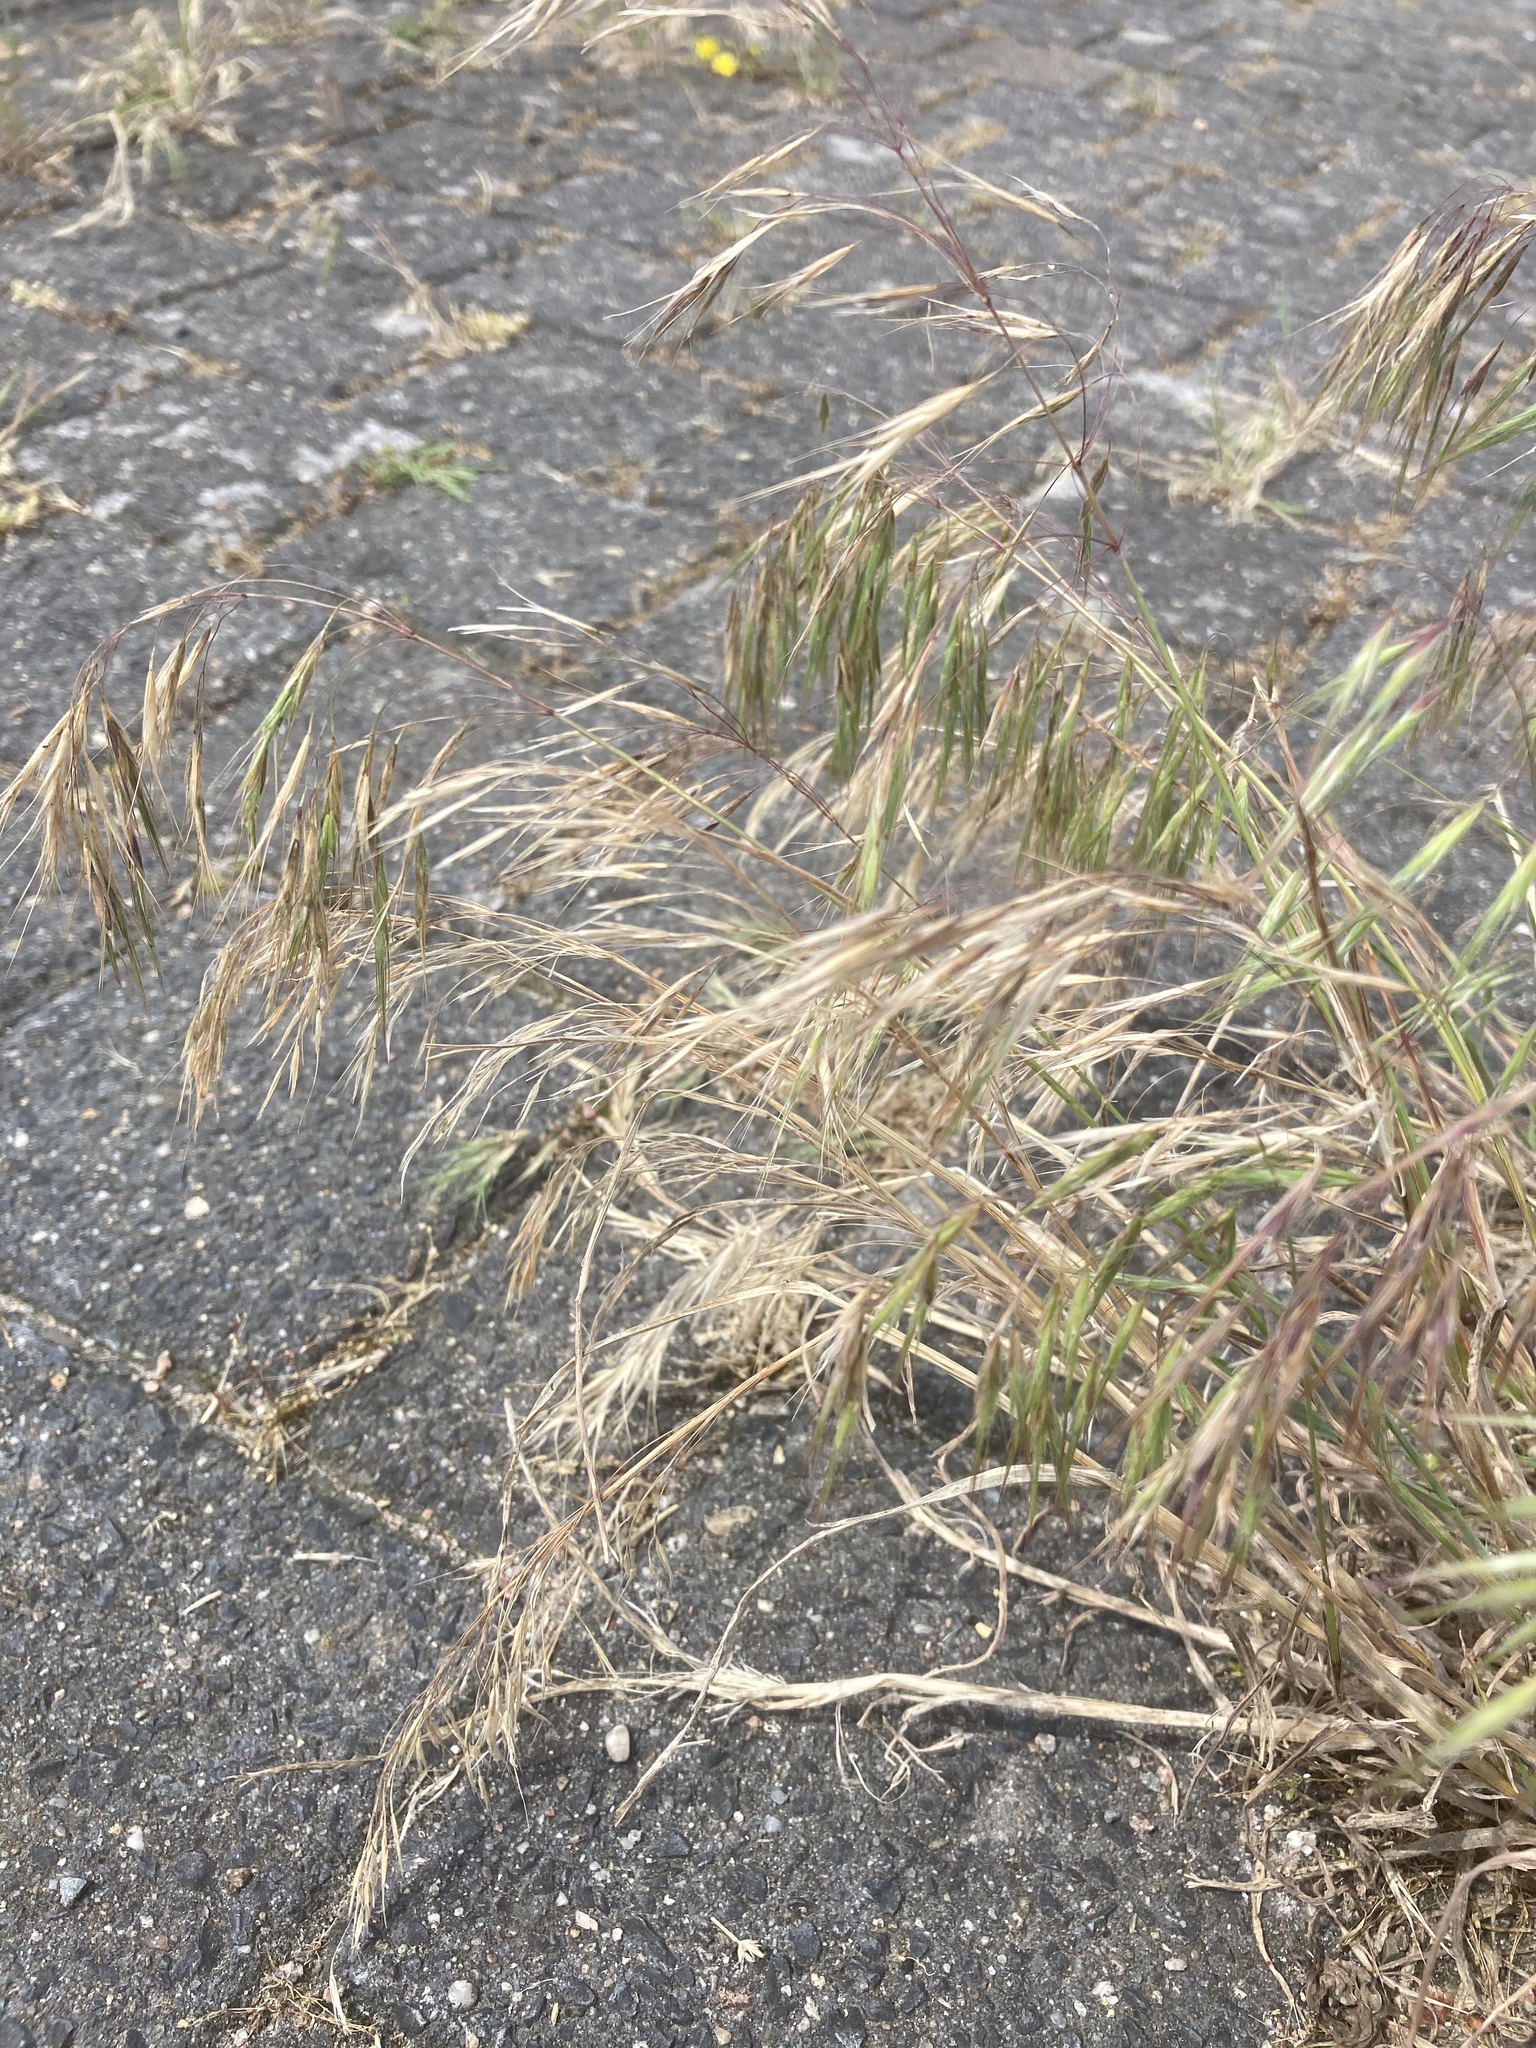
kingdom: Plantae
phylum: Tracheophyta
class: Liliopsida
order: Poales
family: Poaceae
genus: Bromus
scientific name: Bromus tectorum
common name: Cheatgrass
